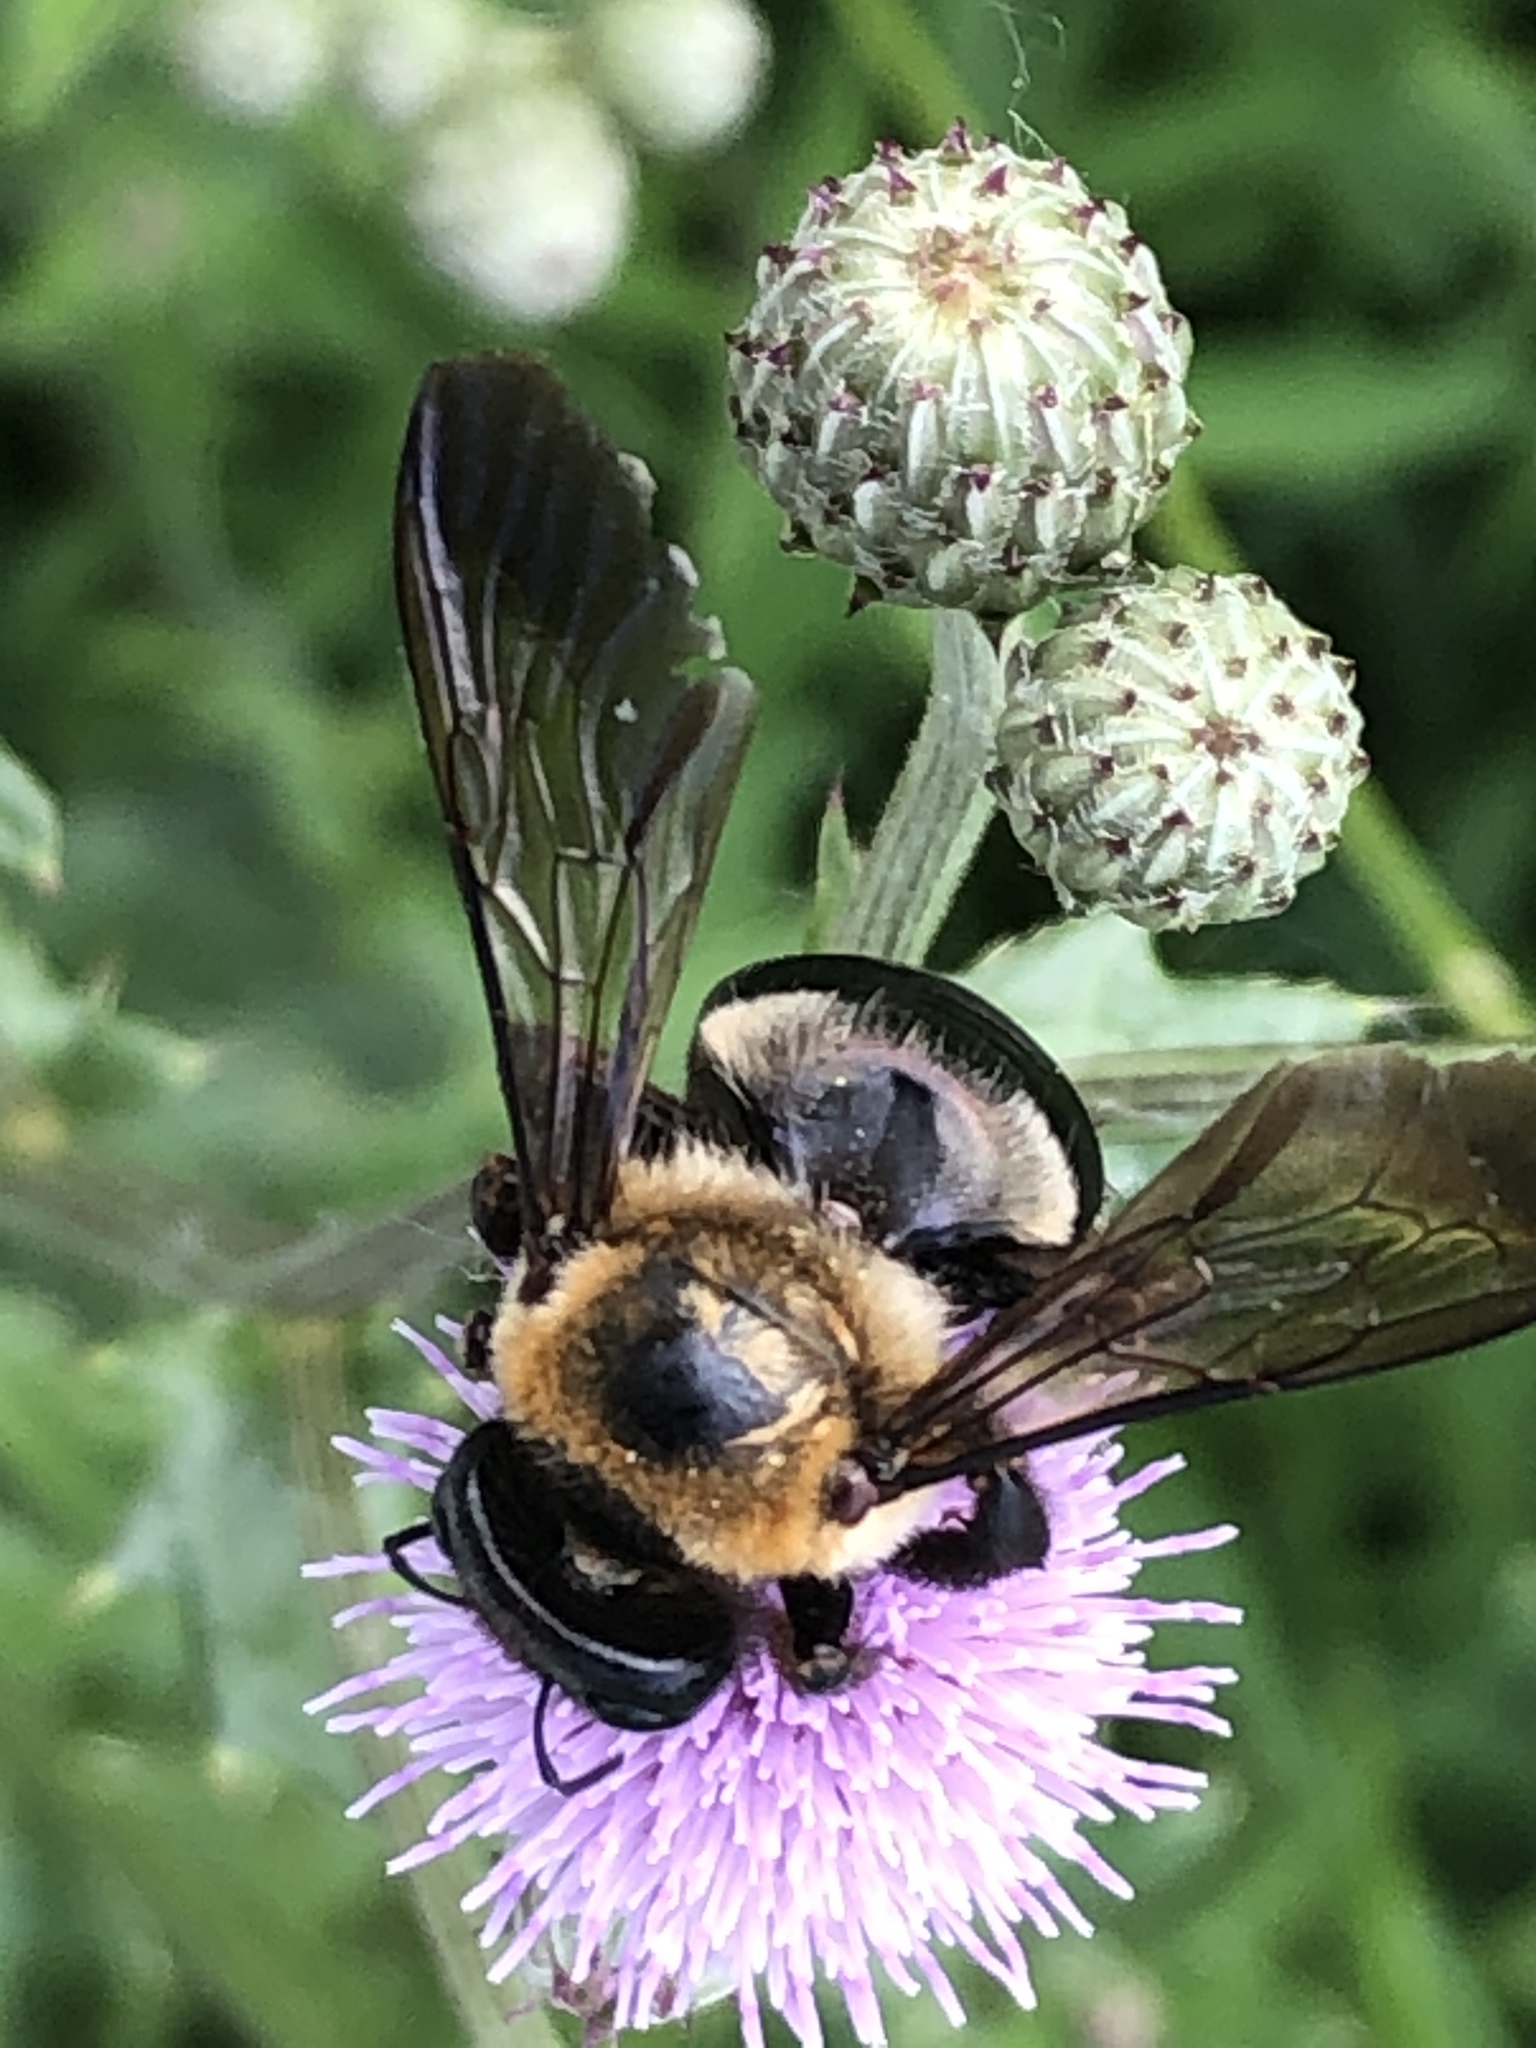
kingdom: Animalia
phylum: Arthropoda
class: Insecta
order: Hymenoptera
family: Apidae
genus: Xylocopa
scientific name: Xylocopa virginica
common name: Carpenter bee
